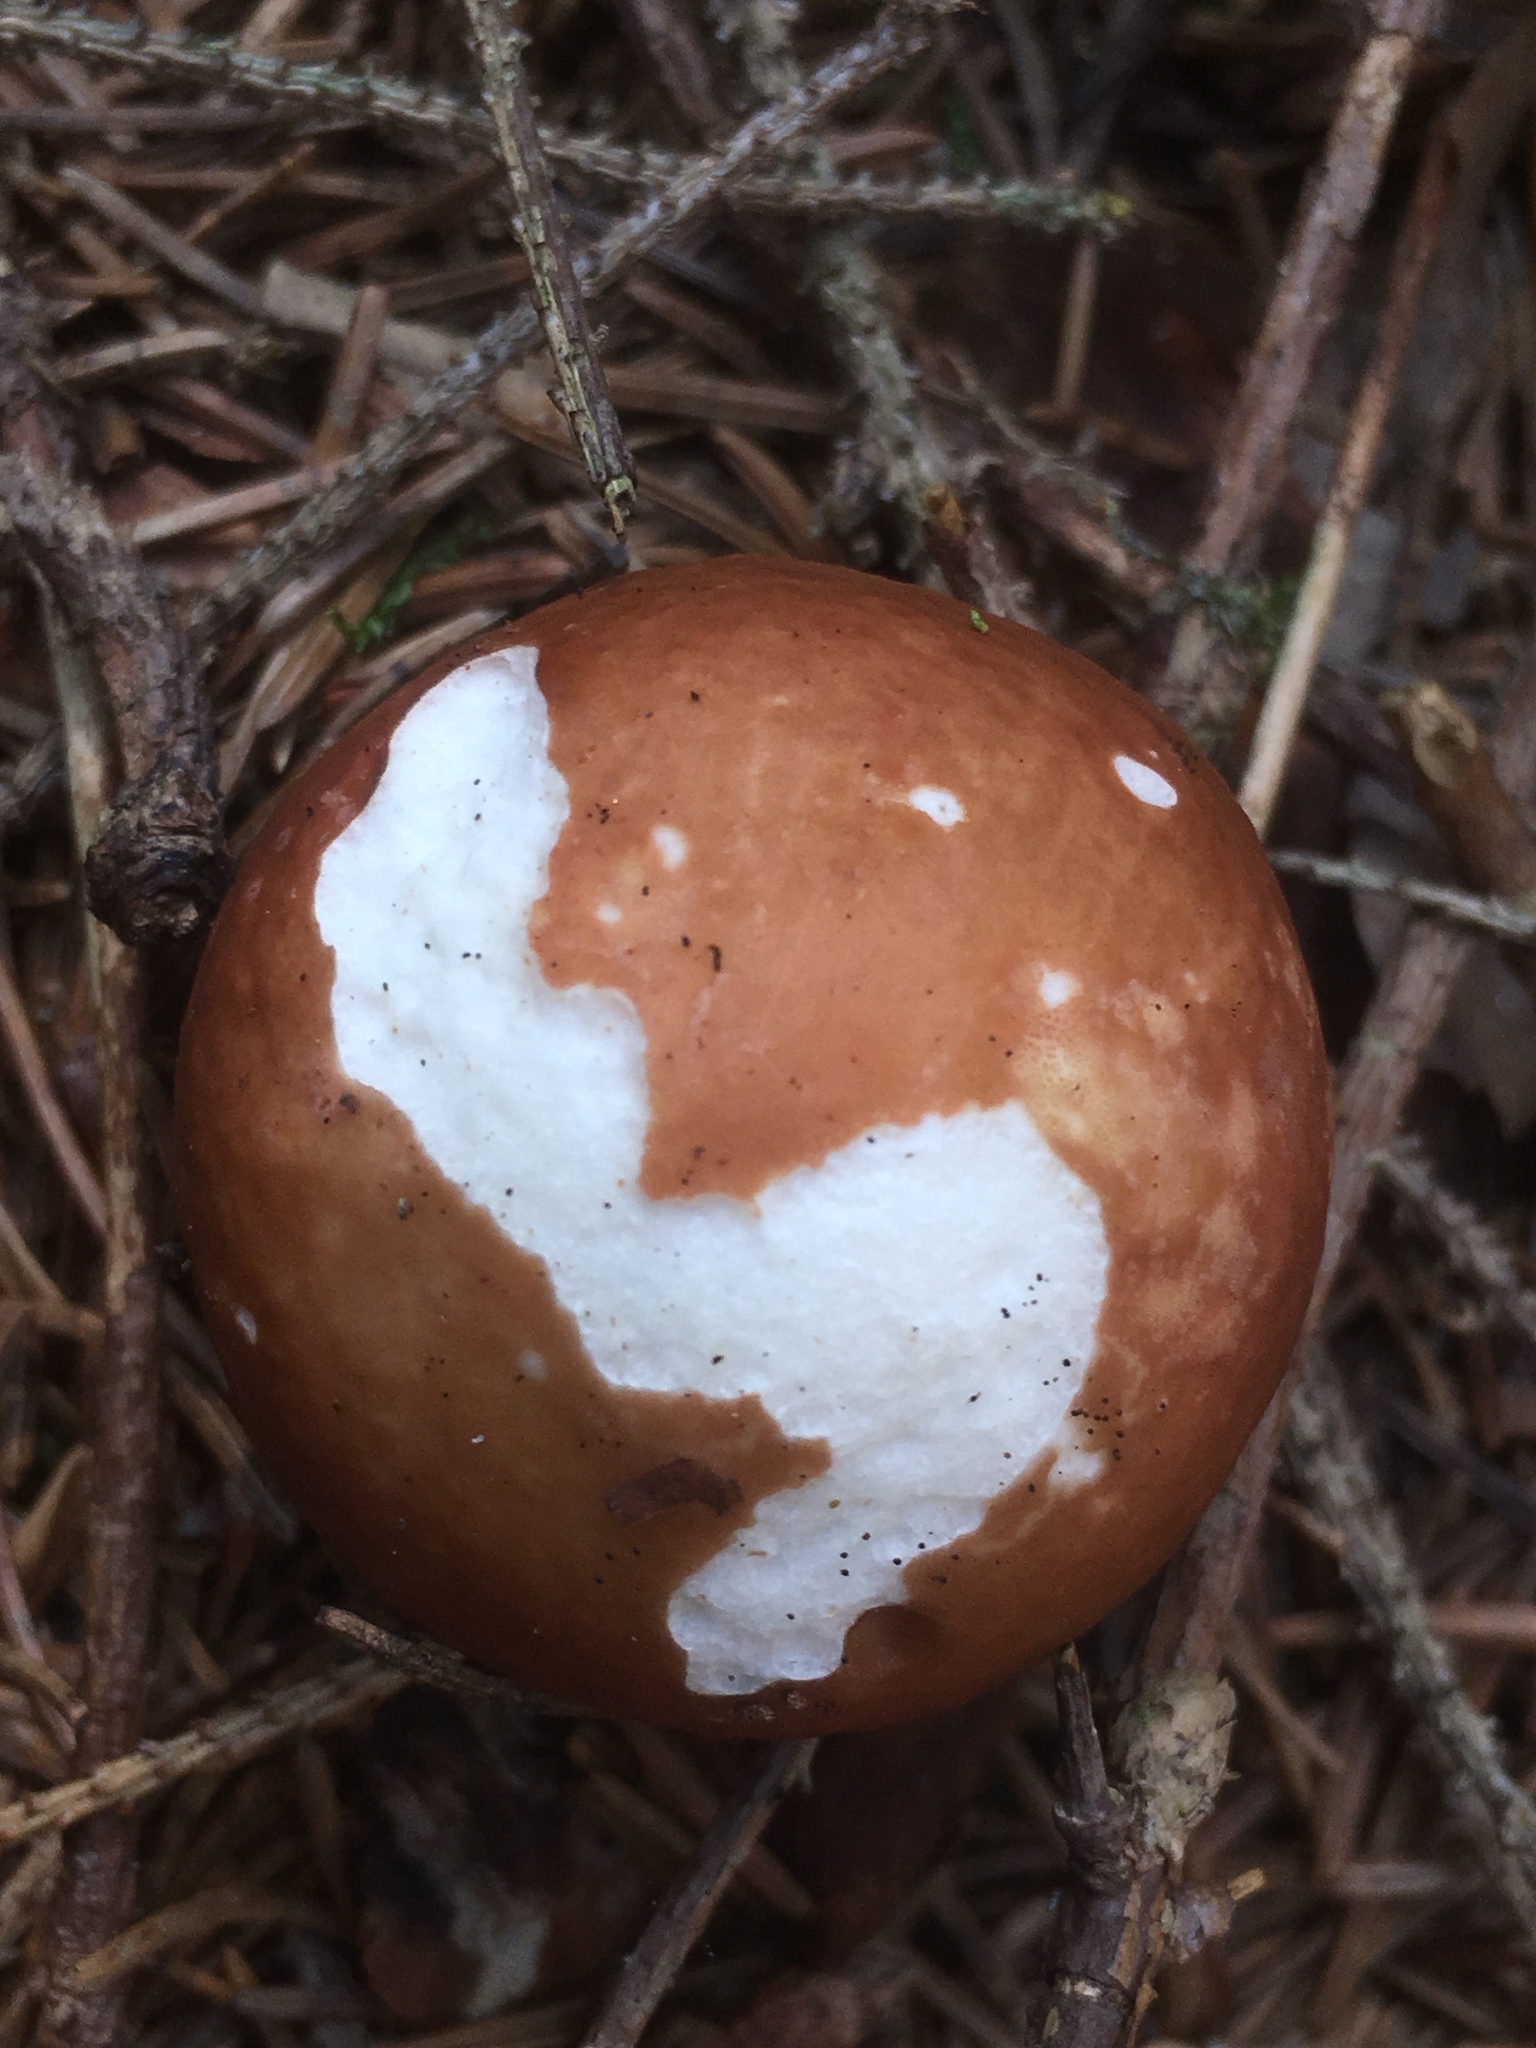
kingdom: Fungi
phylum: Basidiomycota
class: Agaricomycetes
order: Agaricales
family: Strophariaceae
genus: Stropharia
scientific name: Stropharia rugosoannulata
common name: Wine roundhead
